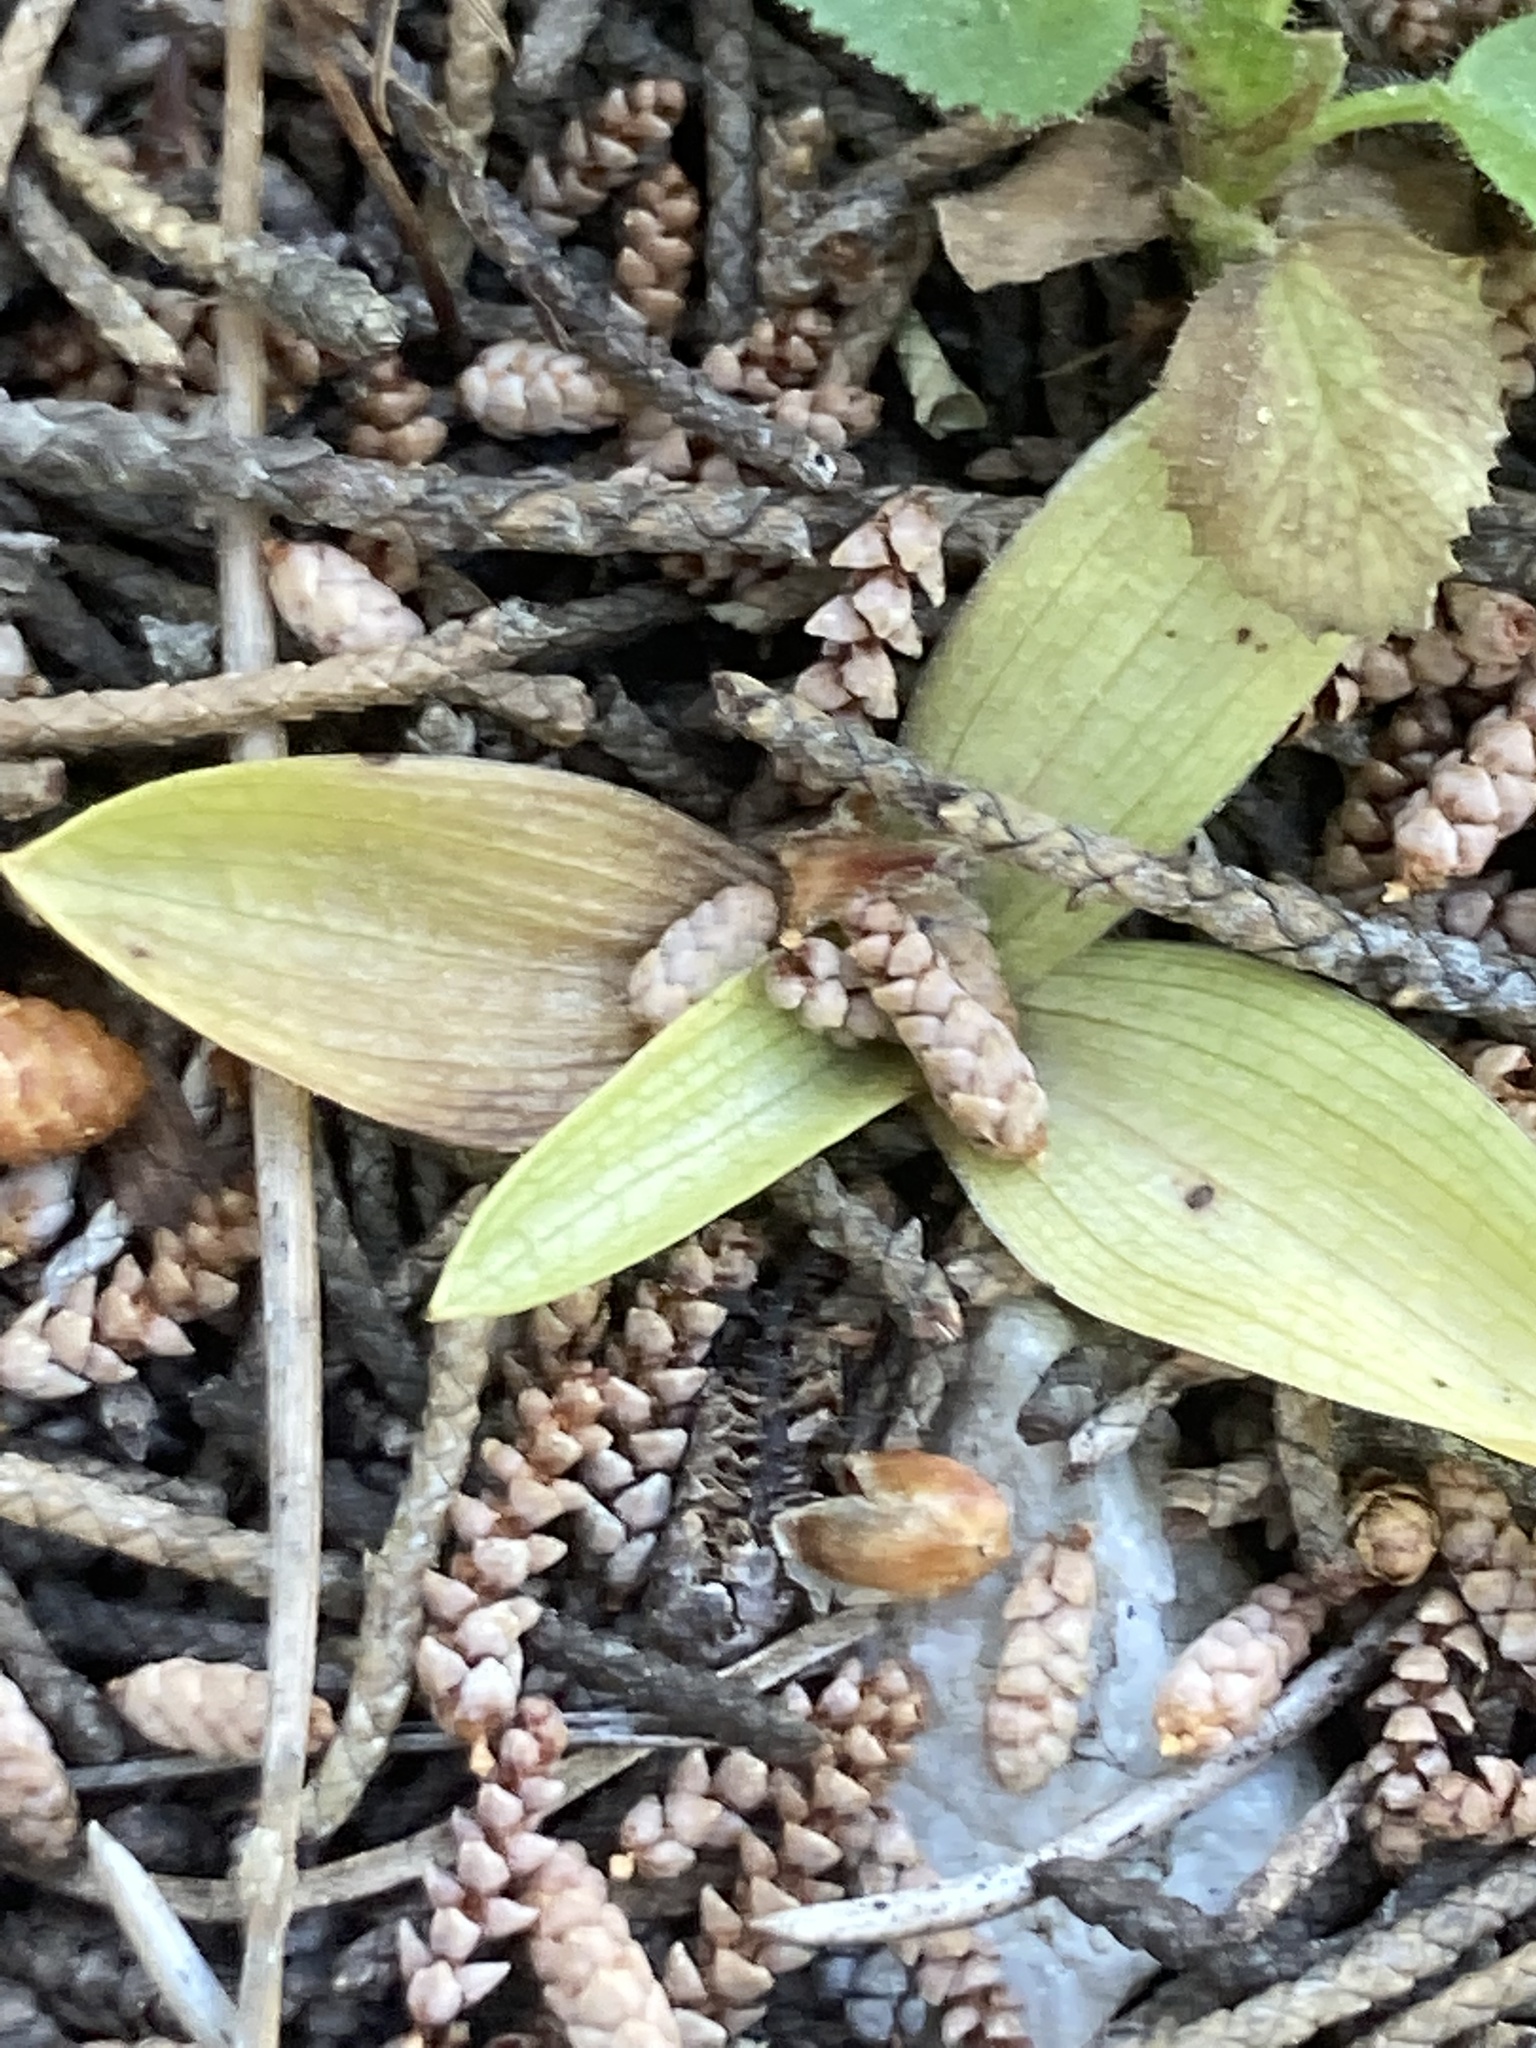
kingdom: Plantae
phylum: Tracheophyta
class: Liliopsida
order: Asparagales
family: Orchidaceae
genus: Ophrys
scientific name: Ophrys lutea
